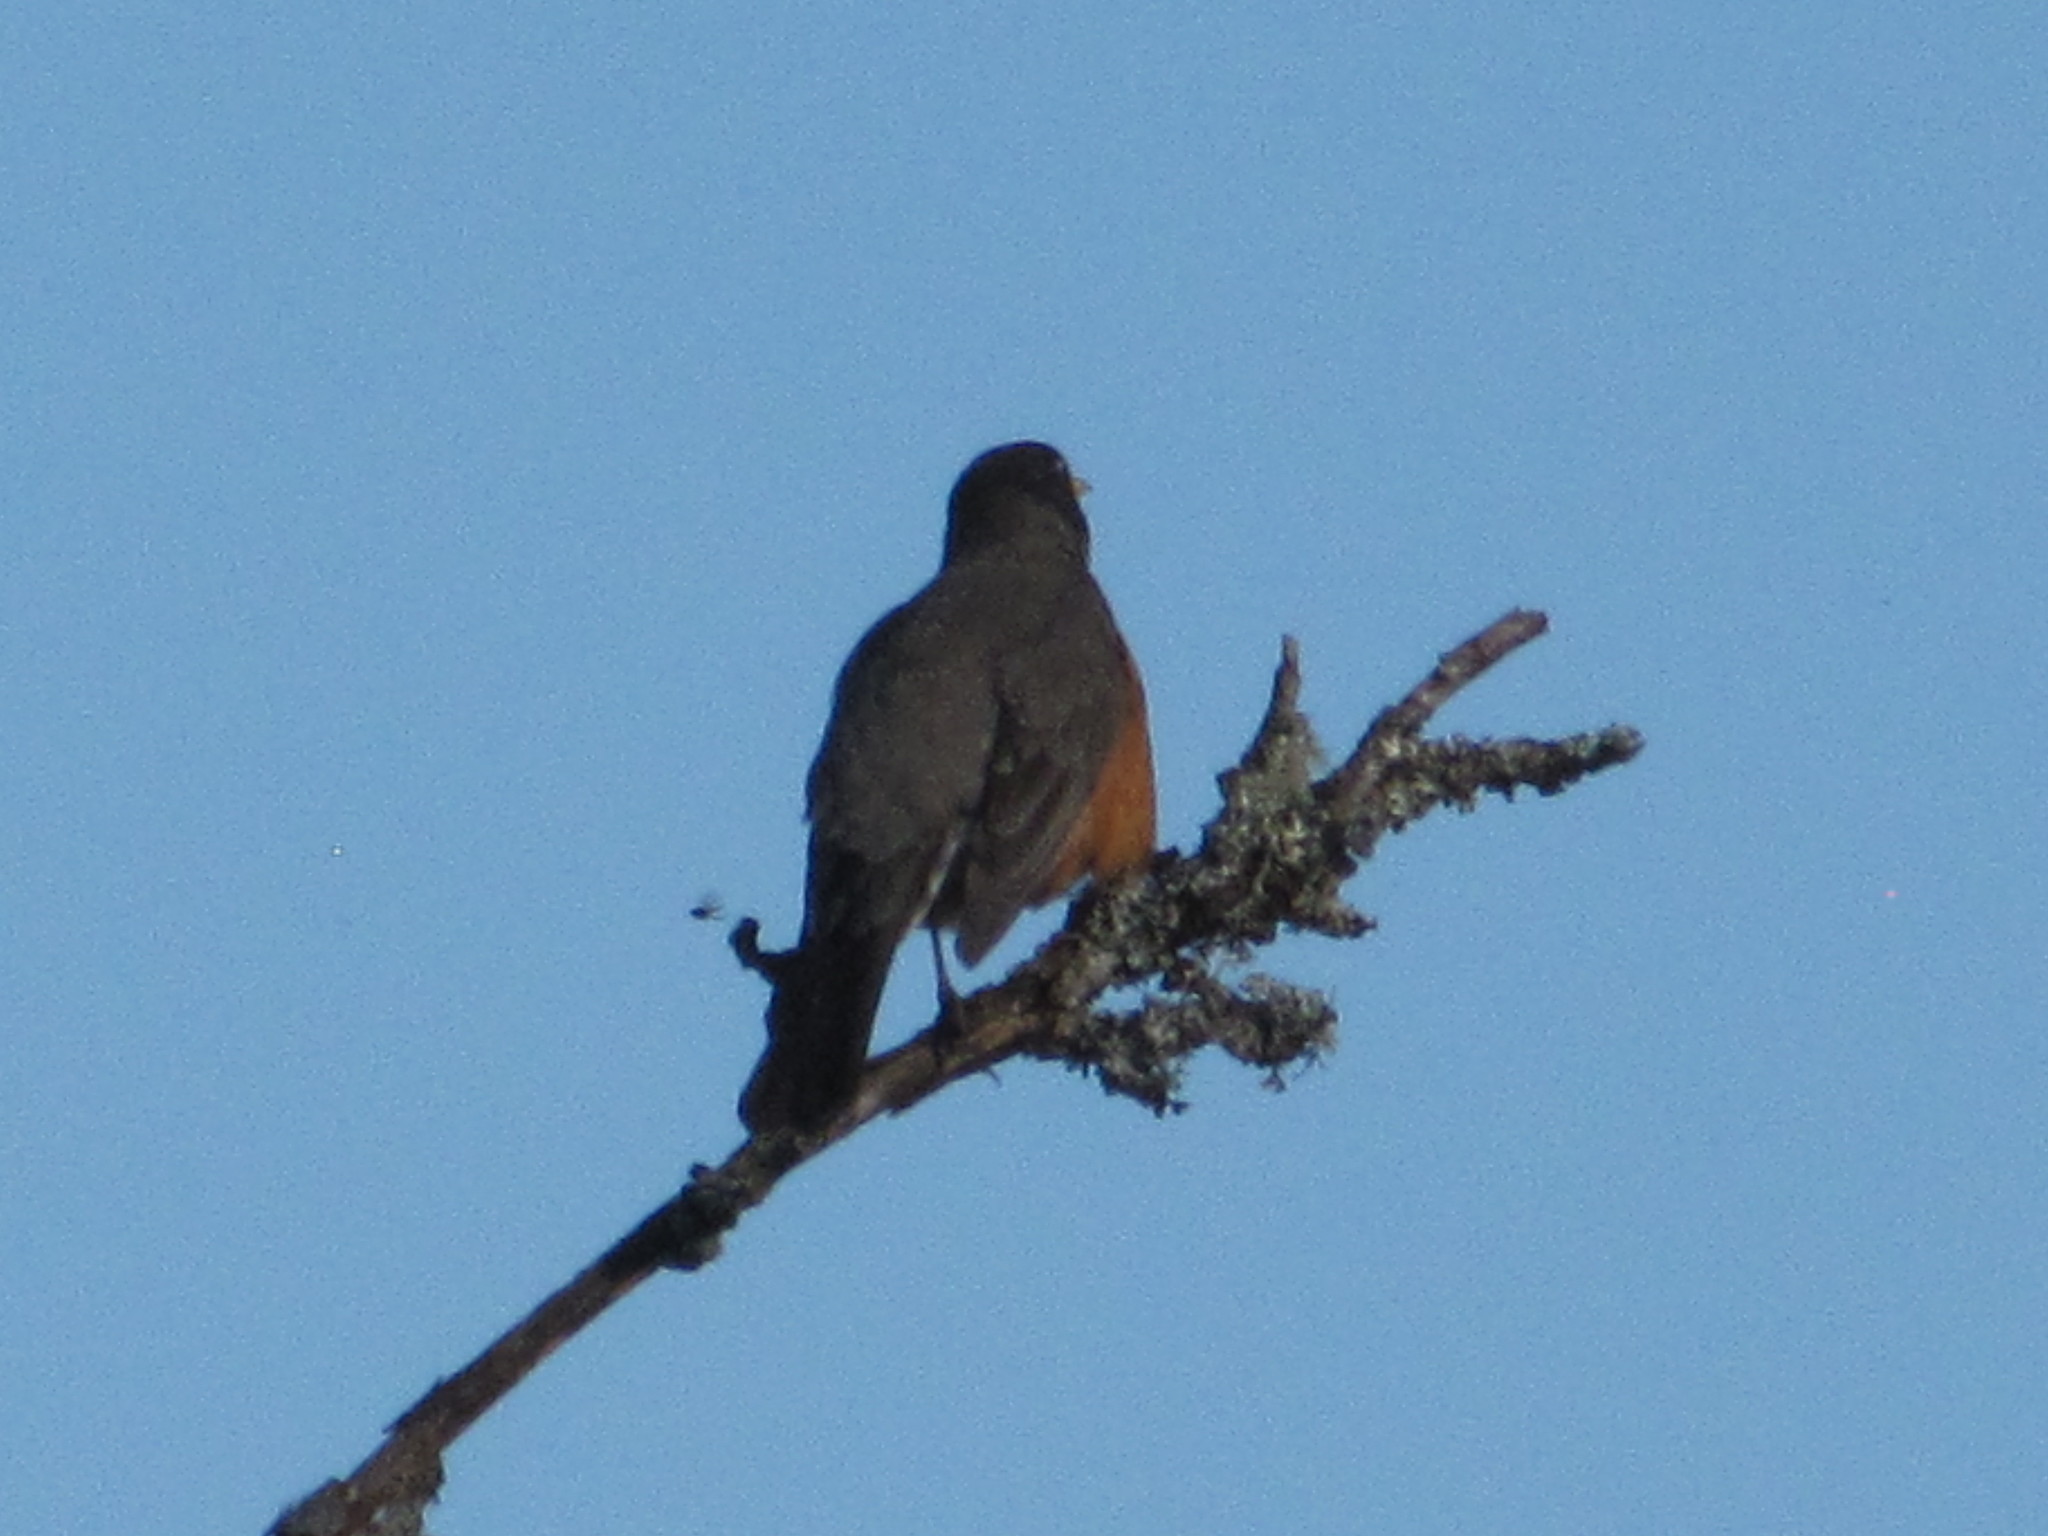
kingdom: Animalia
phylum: Chordata
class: Aves
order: Passeriformes
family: Turdidae
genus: Turdus
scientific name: Turdus migratorius
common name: American robin
